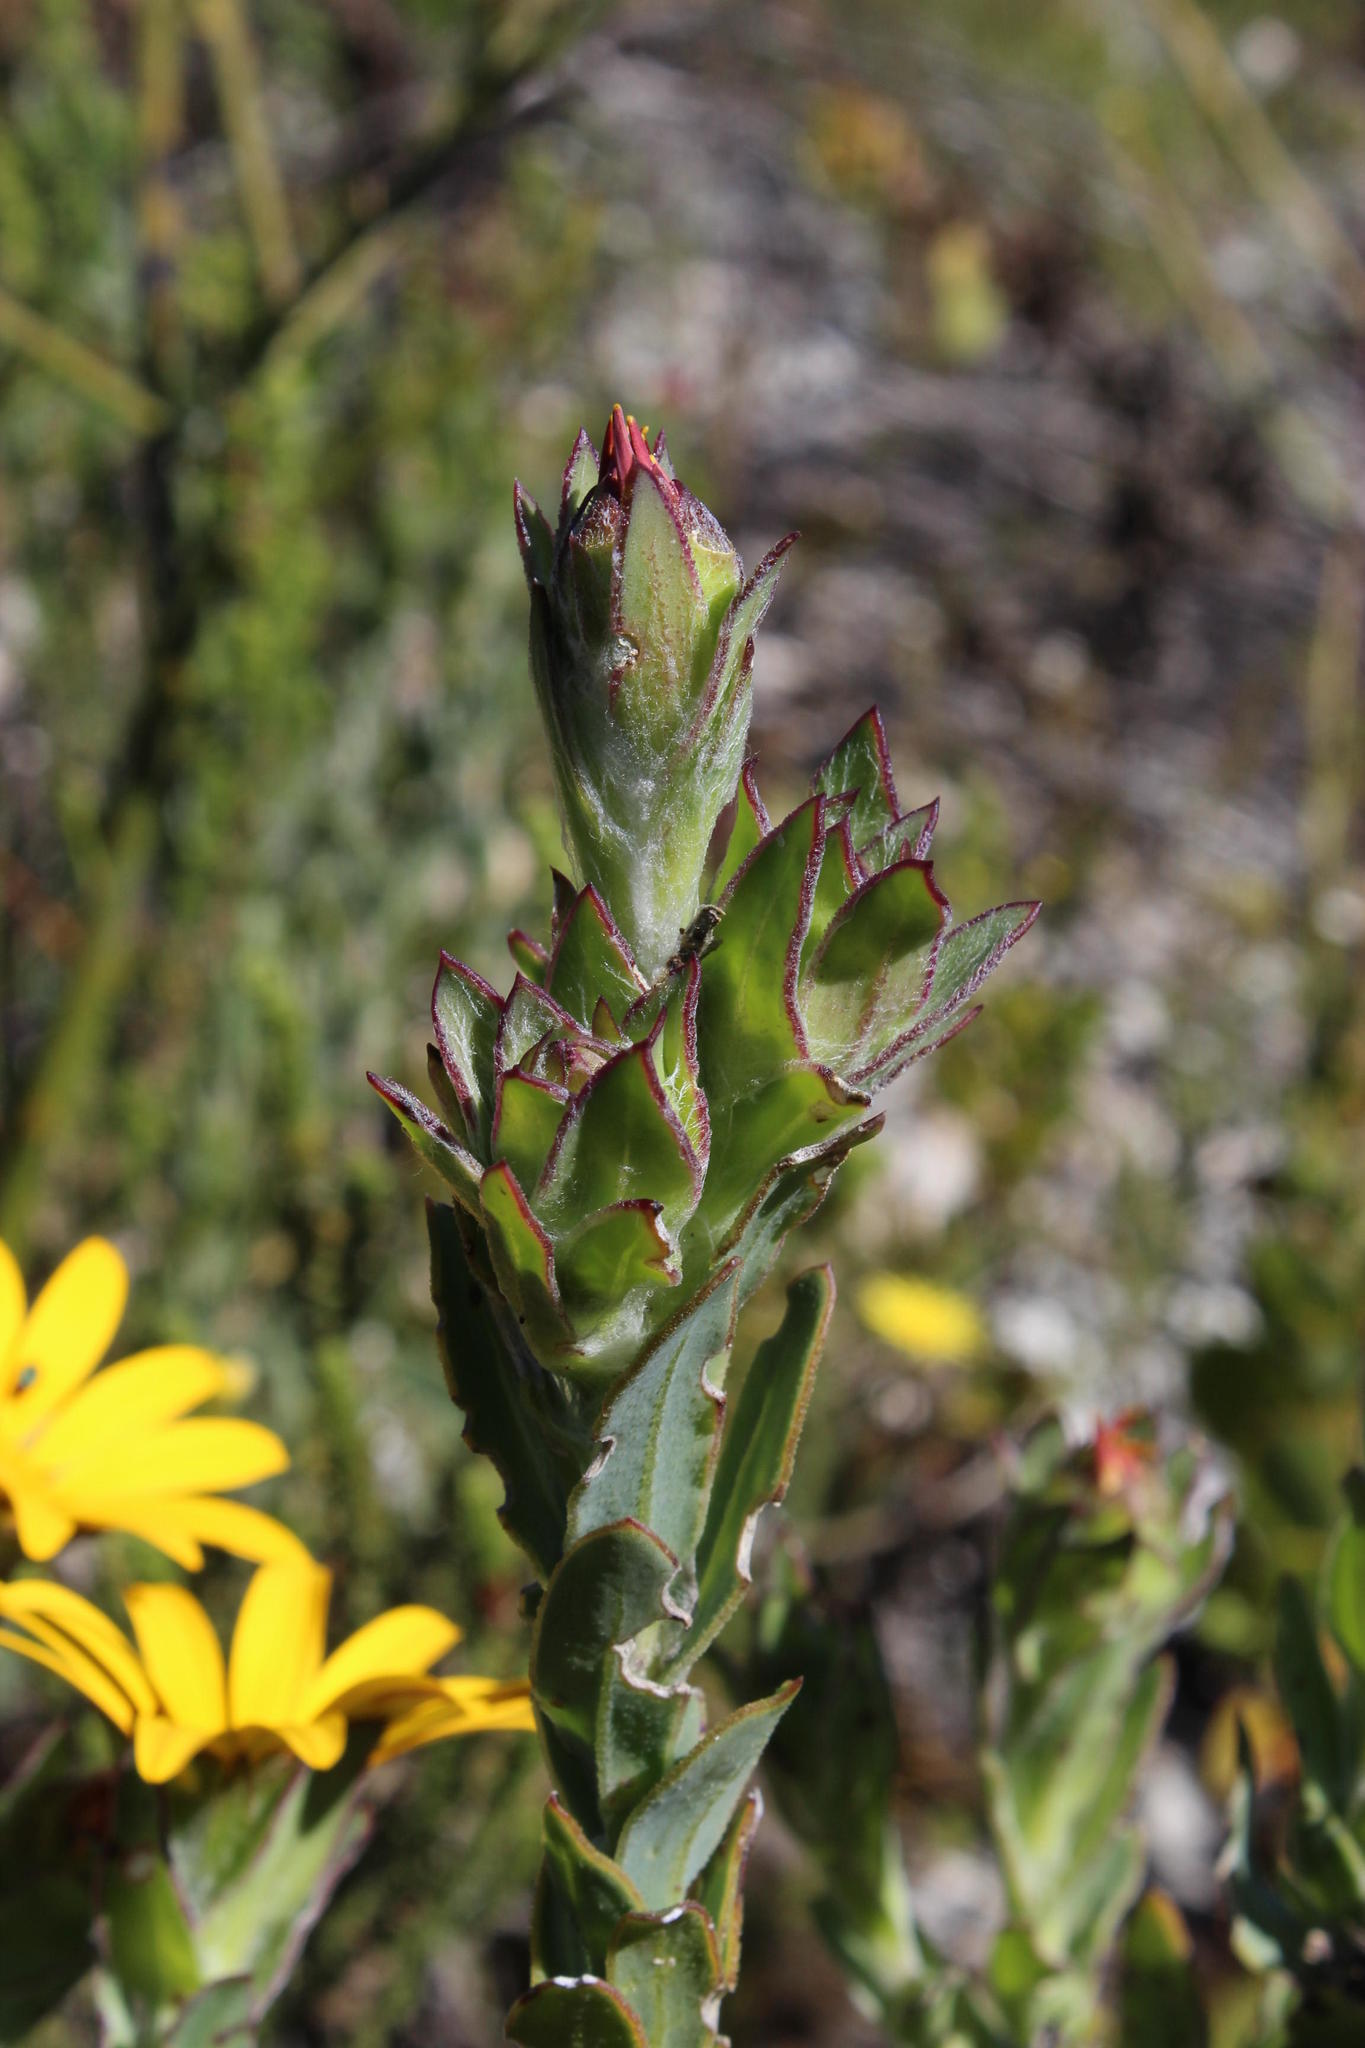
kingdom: Plantae
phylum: Tracheophyta
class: Magnoliopsida
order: Asterales
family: Asteraceae
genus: Osteospermum
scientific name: Osteospermum australe
